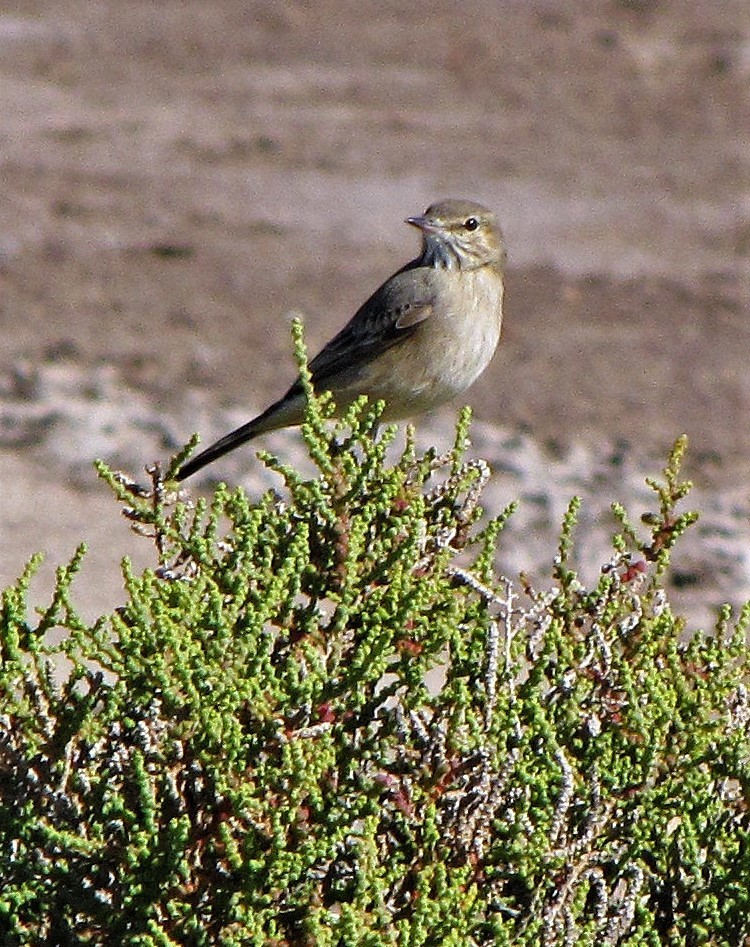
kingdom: Animalia
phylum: Chordata
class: Aves
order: Passeriformes
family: Tyrannidae
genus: Agriornis
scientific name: Agriornis micropterus
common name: Grey-bellied shrike-tyrant
